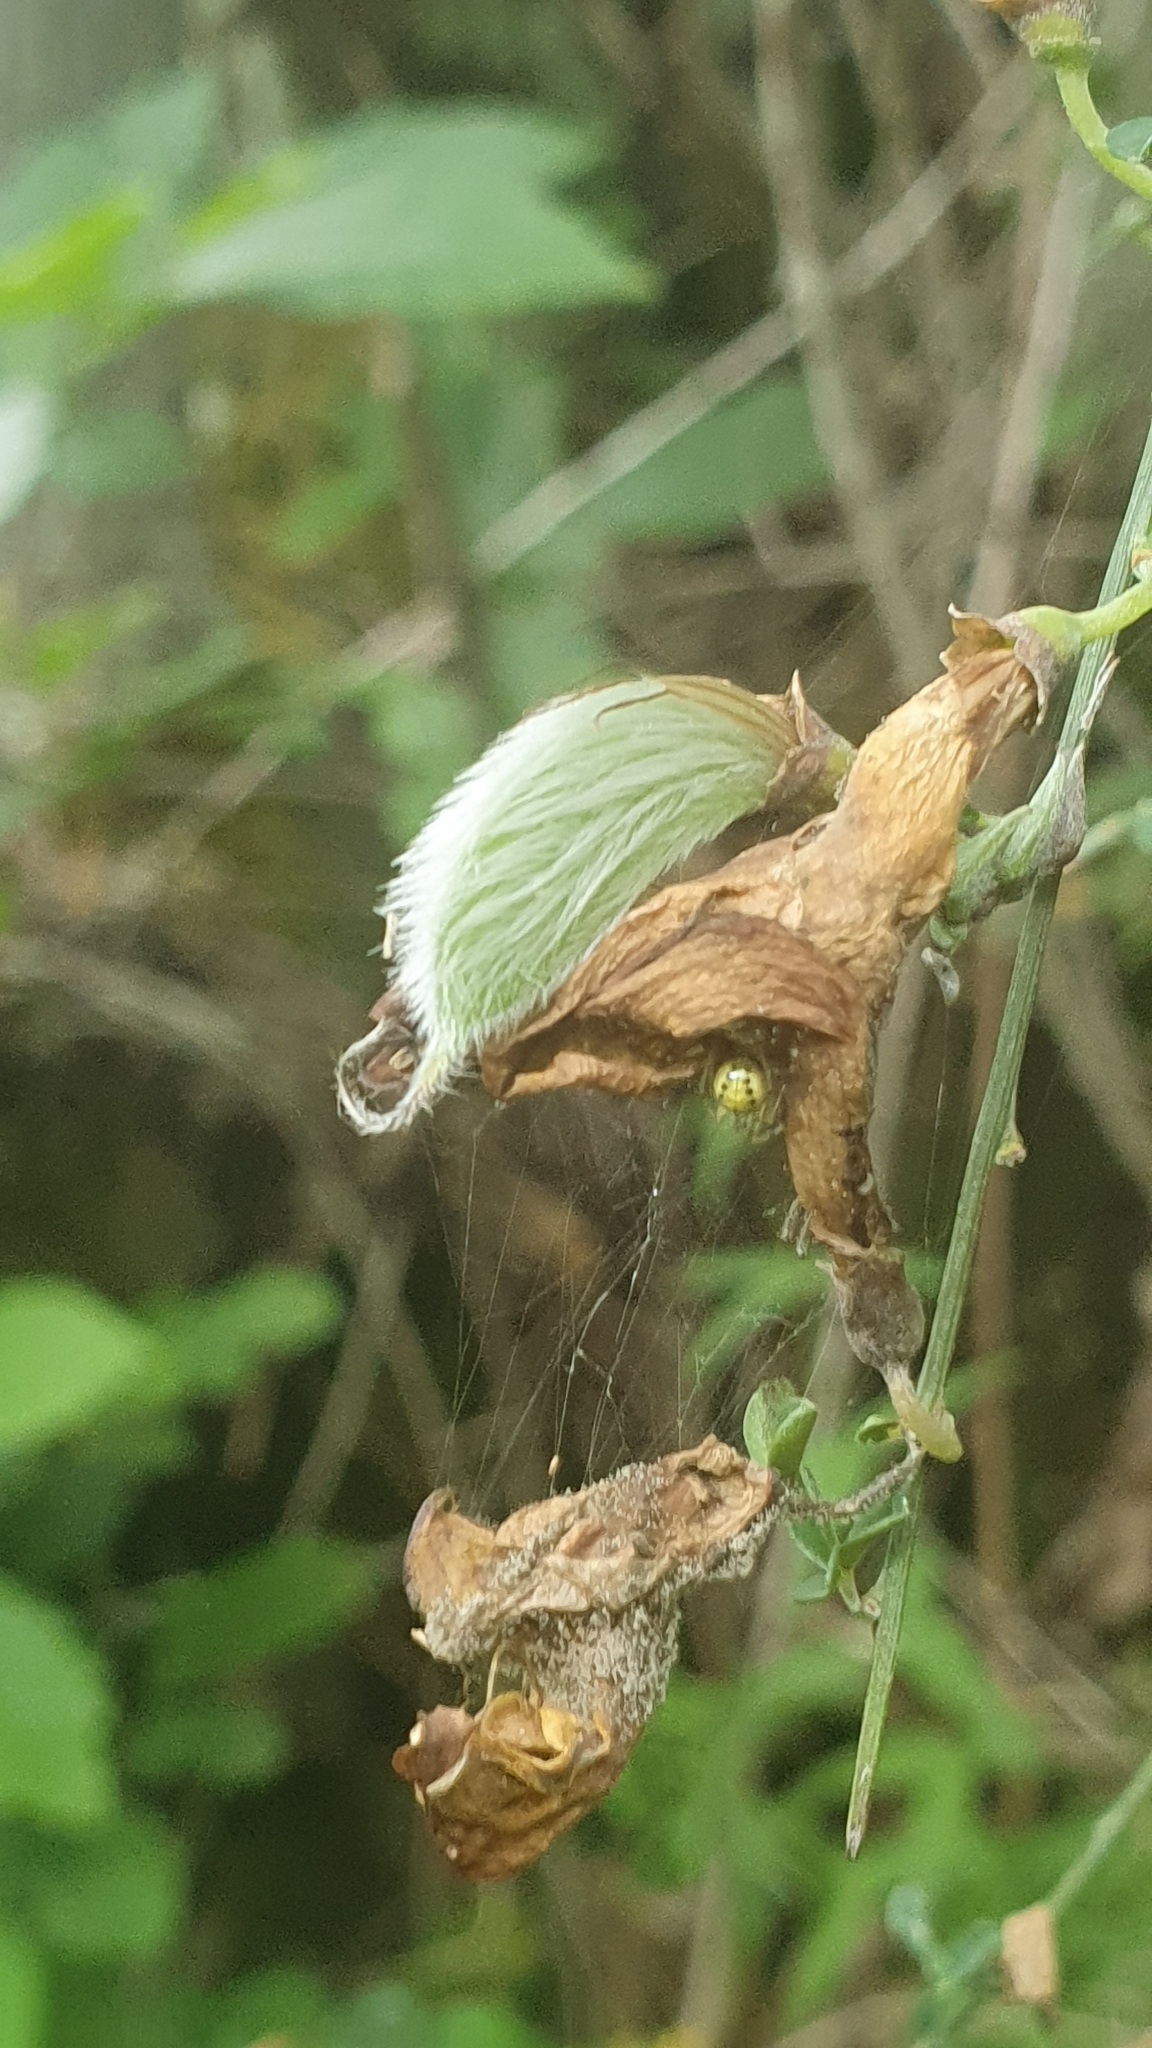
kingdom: Plantae
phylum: Tracheophyta
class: Magnoliopsida
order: Fabales
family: Fabaceae
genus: Cytisus
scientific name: Cytisus striatus
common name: Hairy-fruited broom
